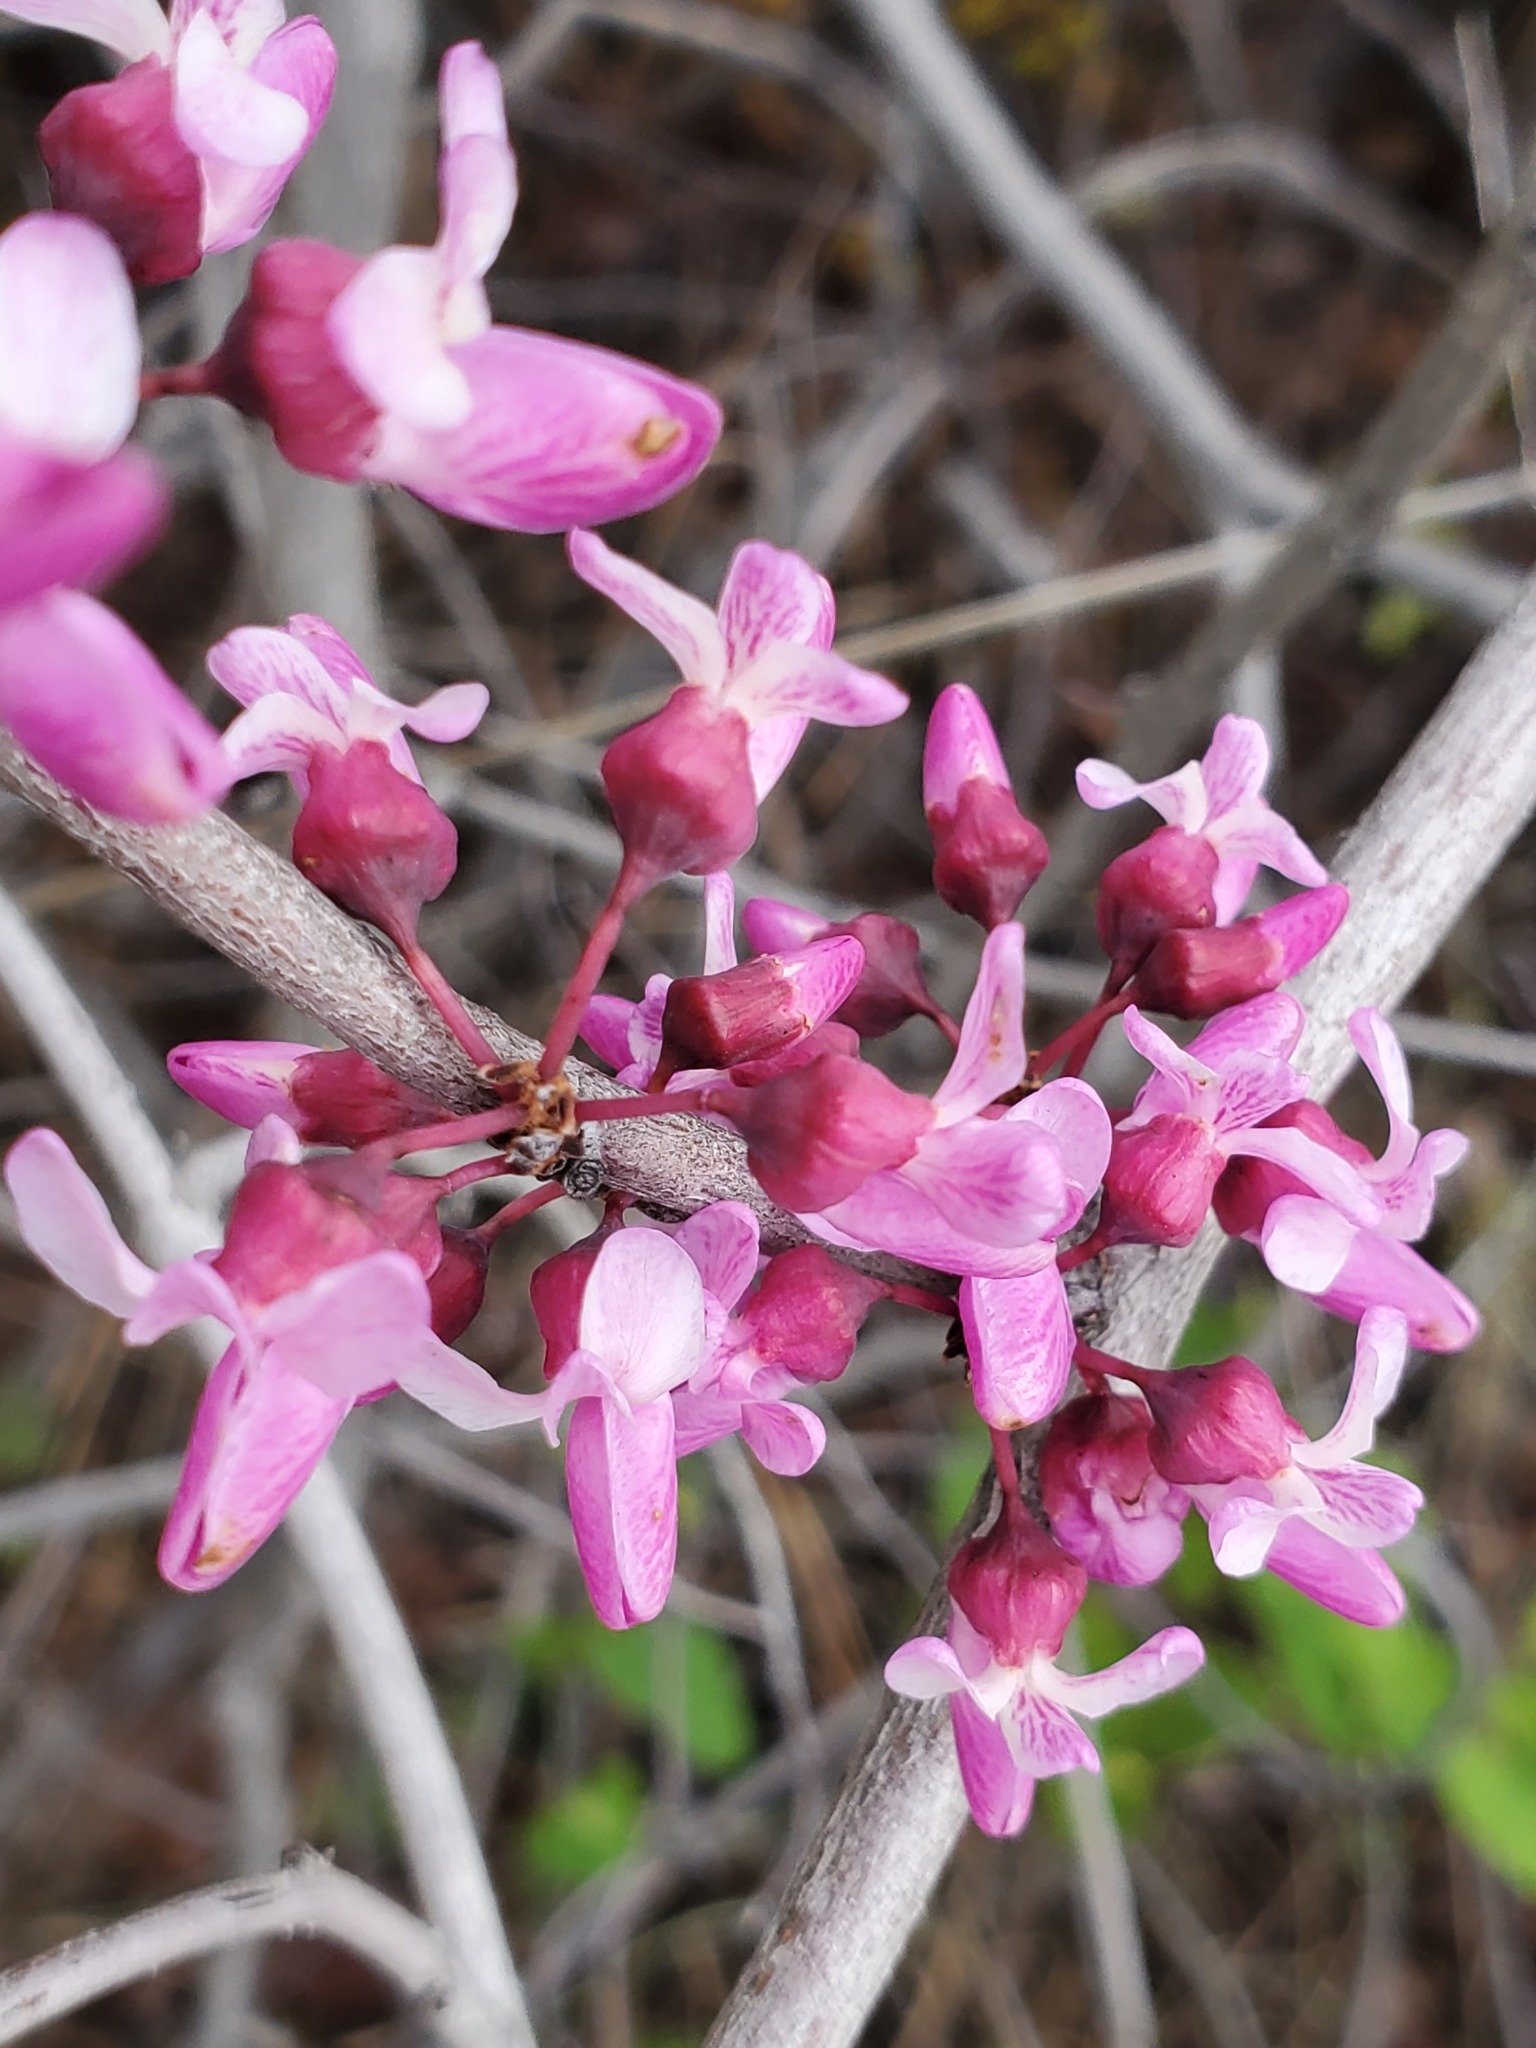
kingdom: Plantae
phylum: Tracheophyta
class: Magnoliopsida
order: Fabales
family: Fabaceae
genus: Cercis
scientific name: Cercis occidentalis
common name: California redbud
